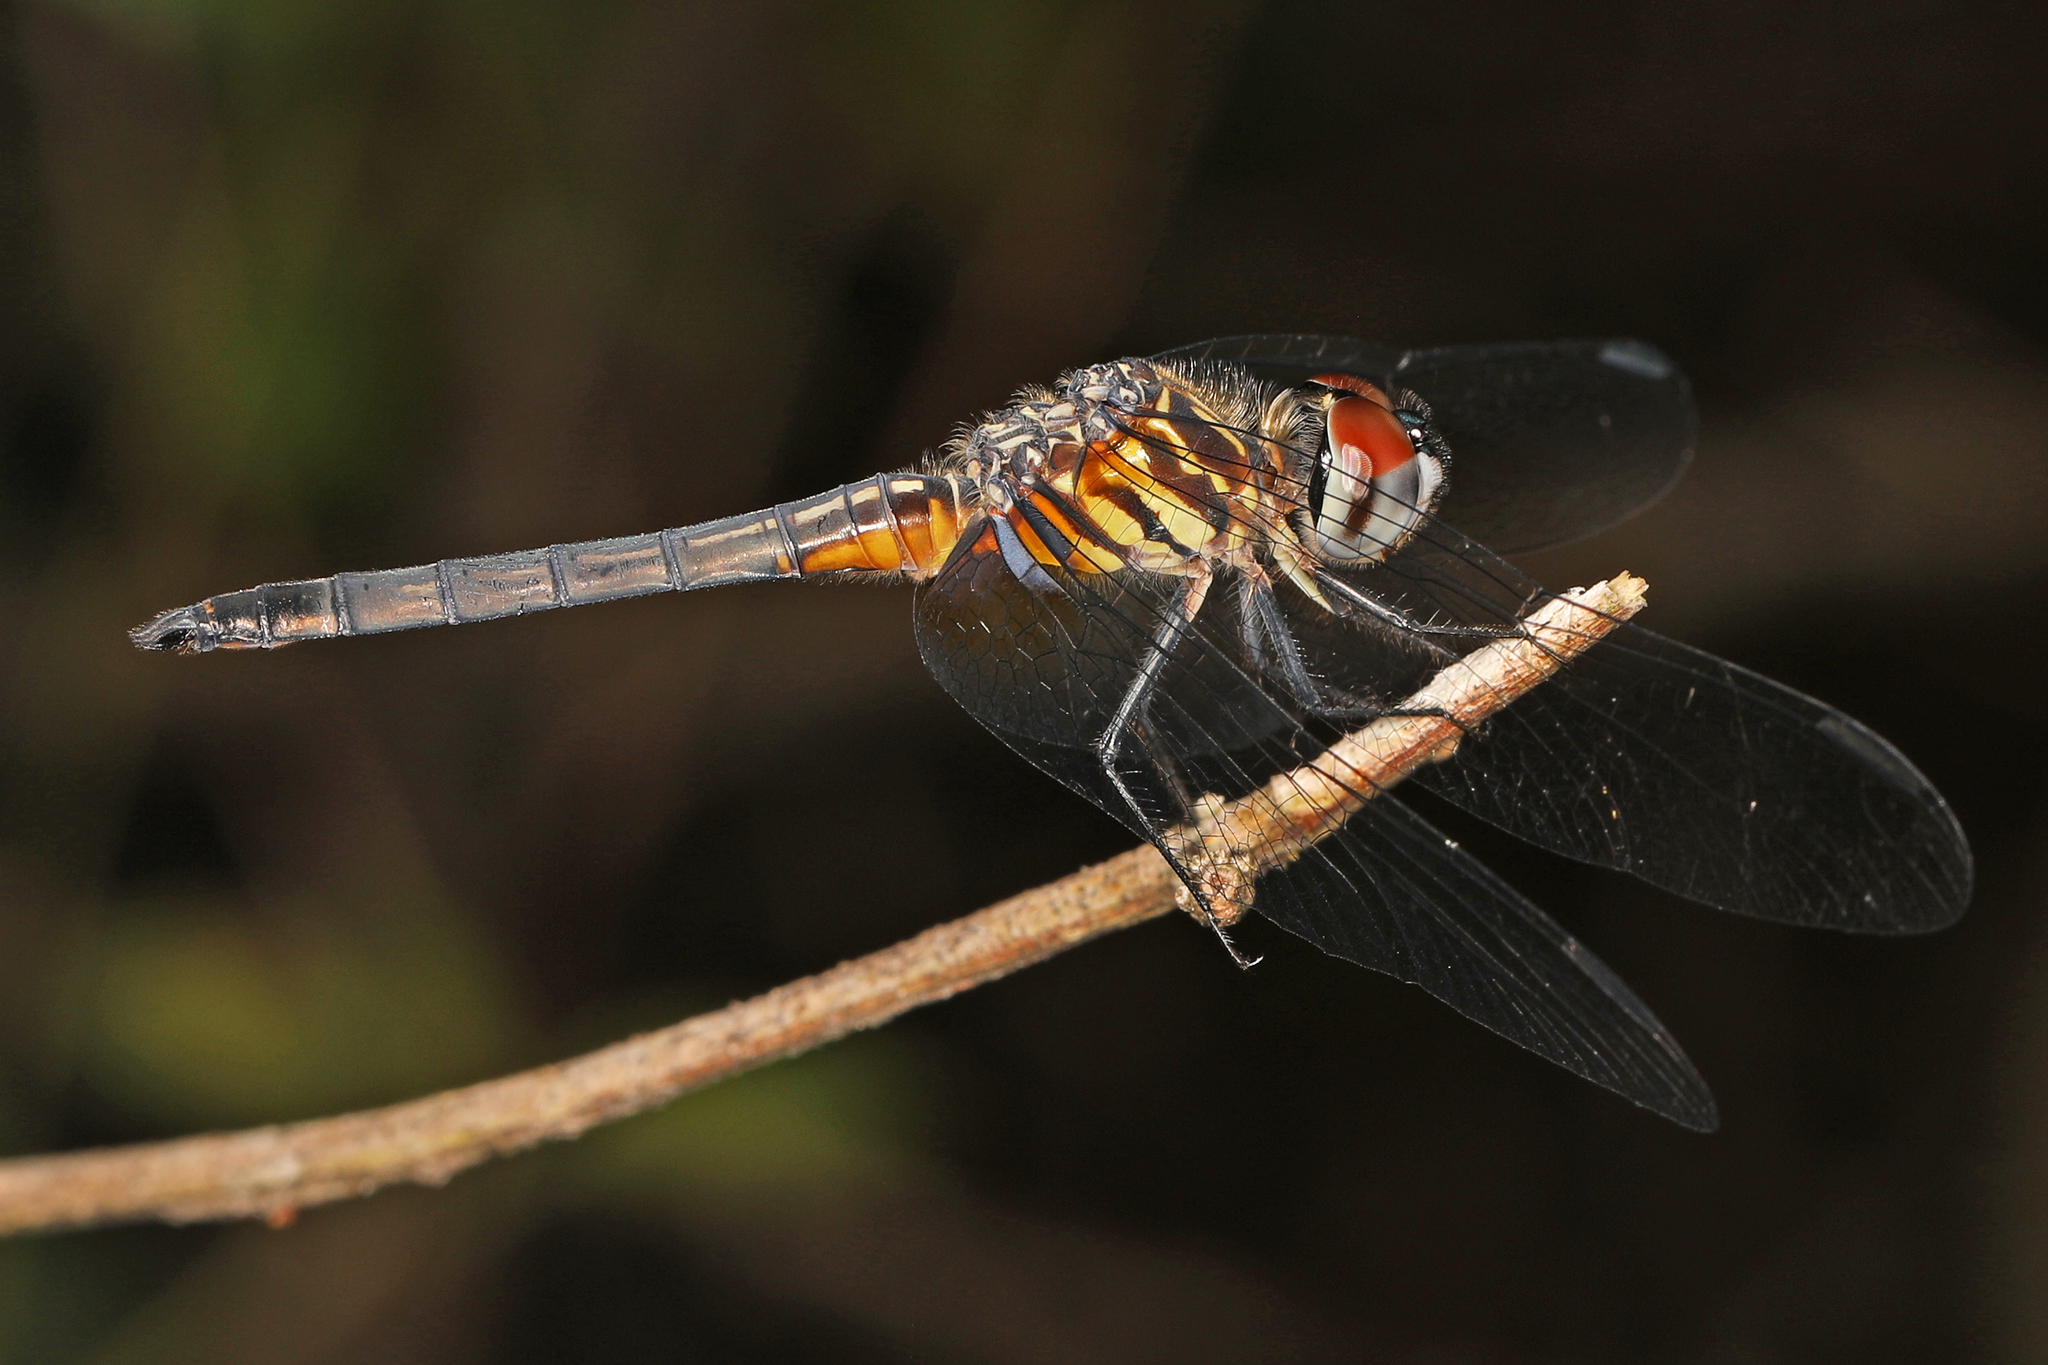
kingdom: Animalia
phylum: Arthropoda
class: Insecta
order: Odonata
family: Libellulidae
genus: Pachydiplax
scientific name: Pachydiplax longipennis
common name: Blue dasher
